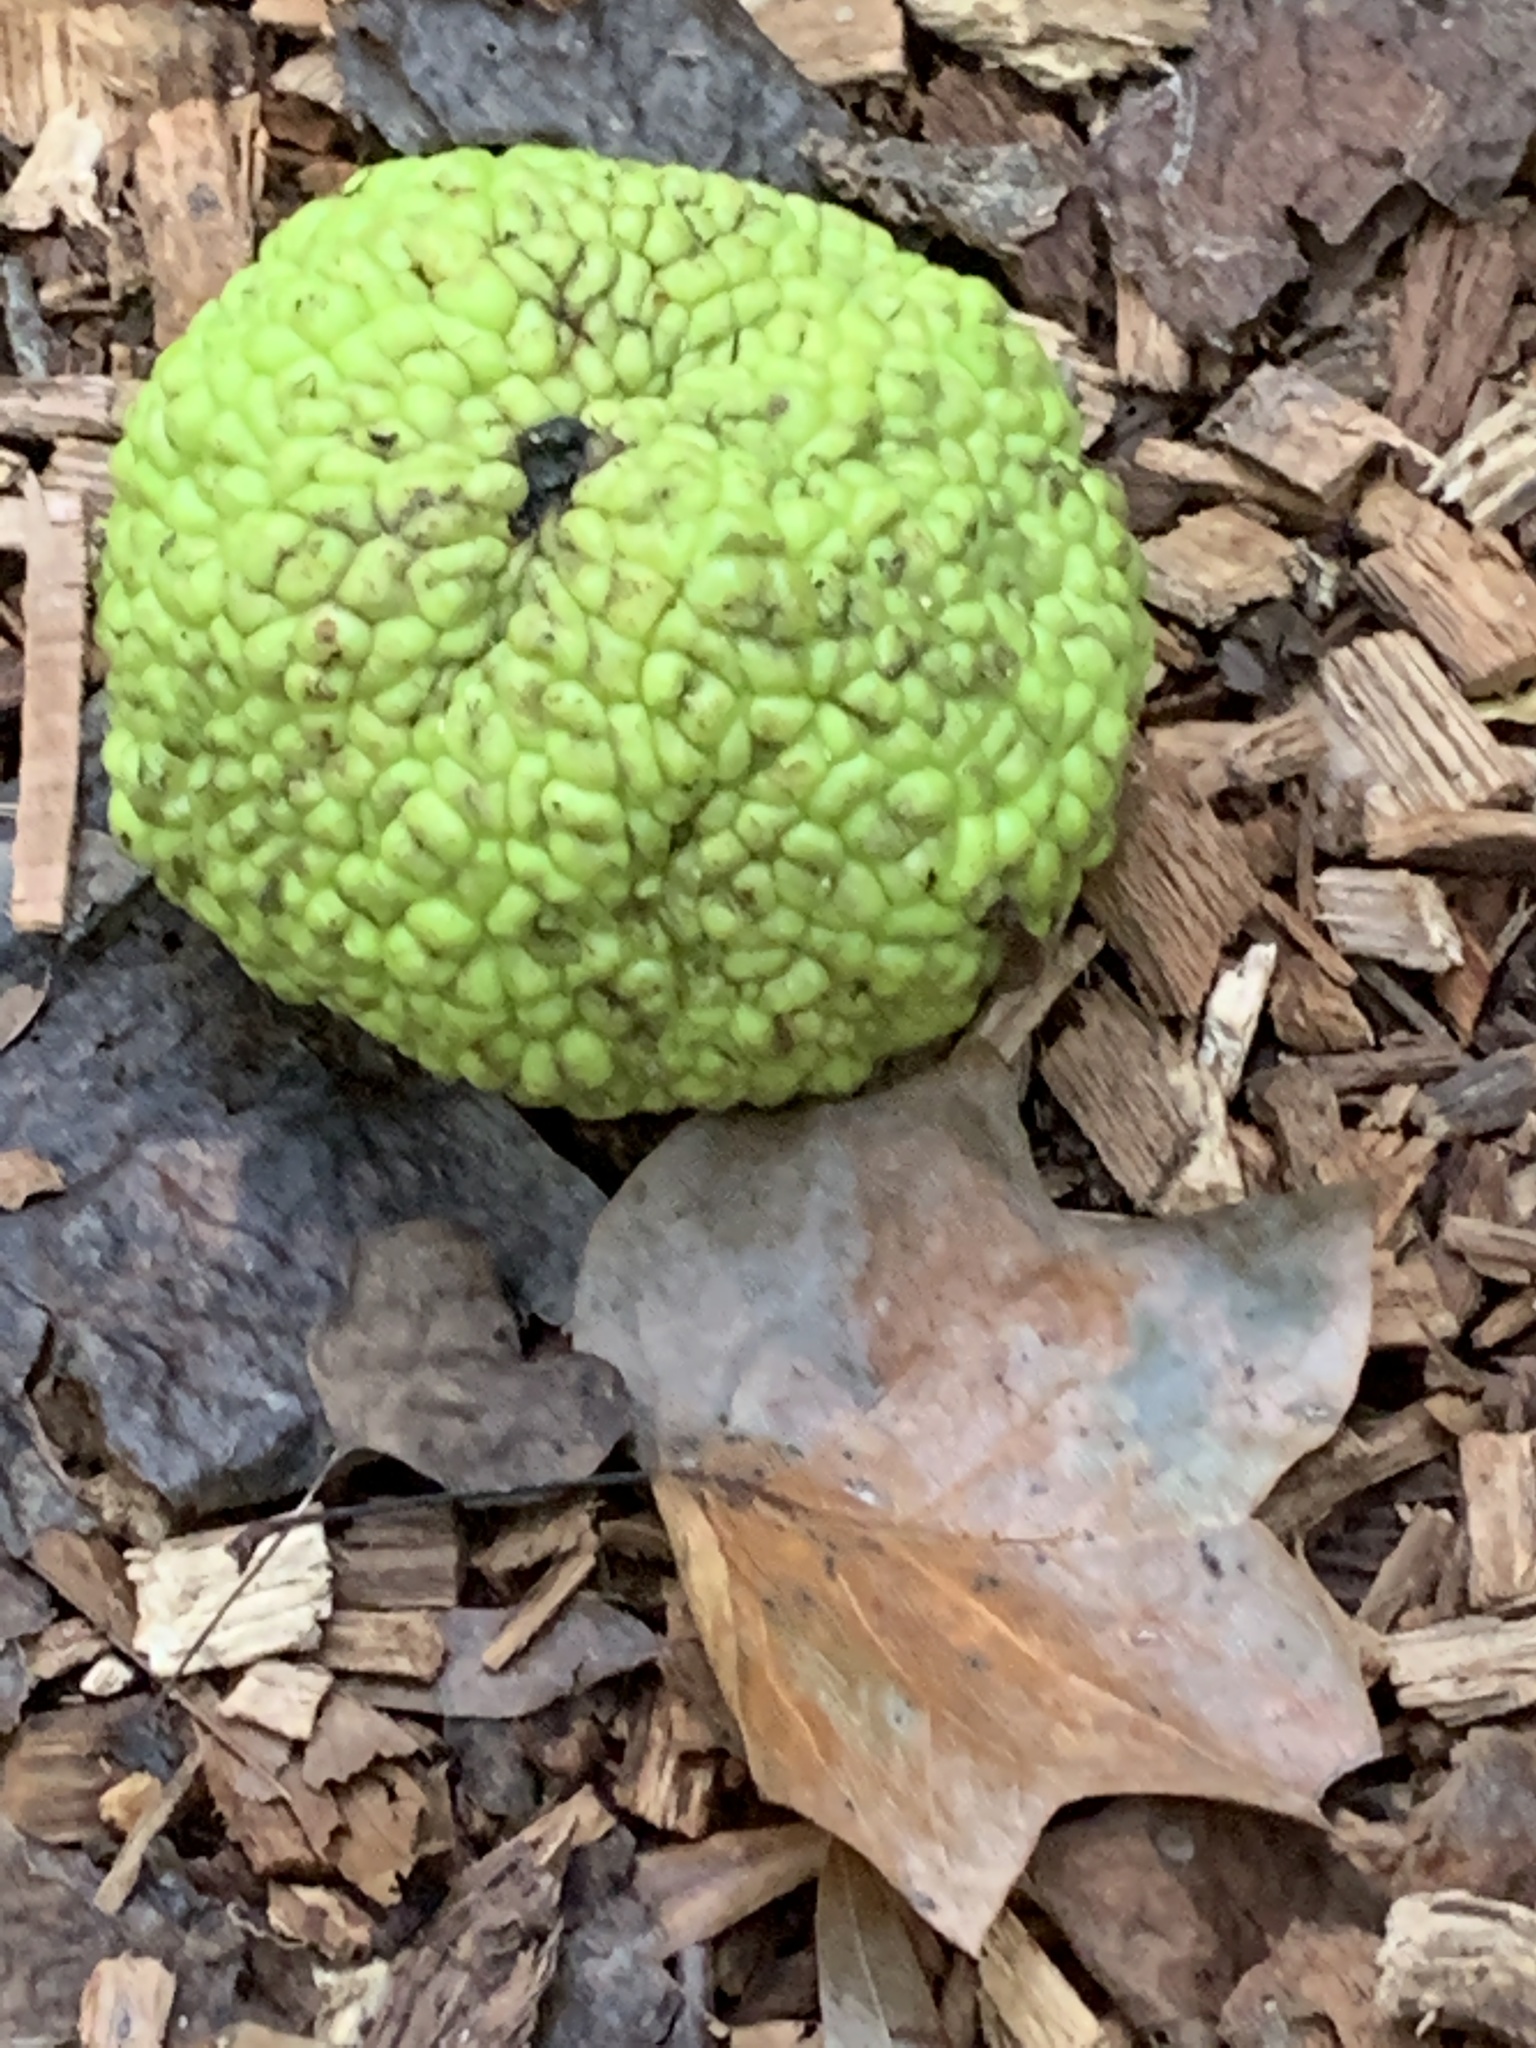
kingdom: Plantae
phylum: Tracheophyta
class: Magnoliopsida
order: Rosales
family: Moraceae
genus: Maclura
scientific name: Maclura pomifera
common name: Osage-orange
